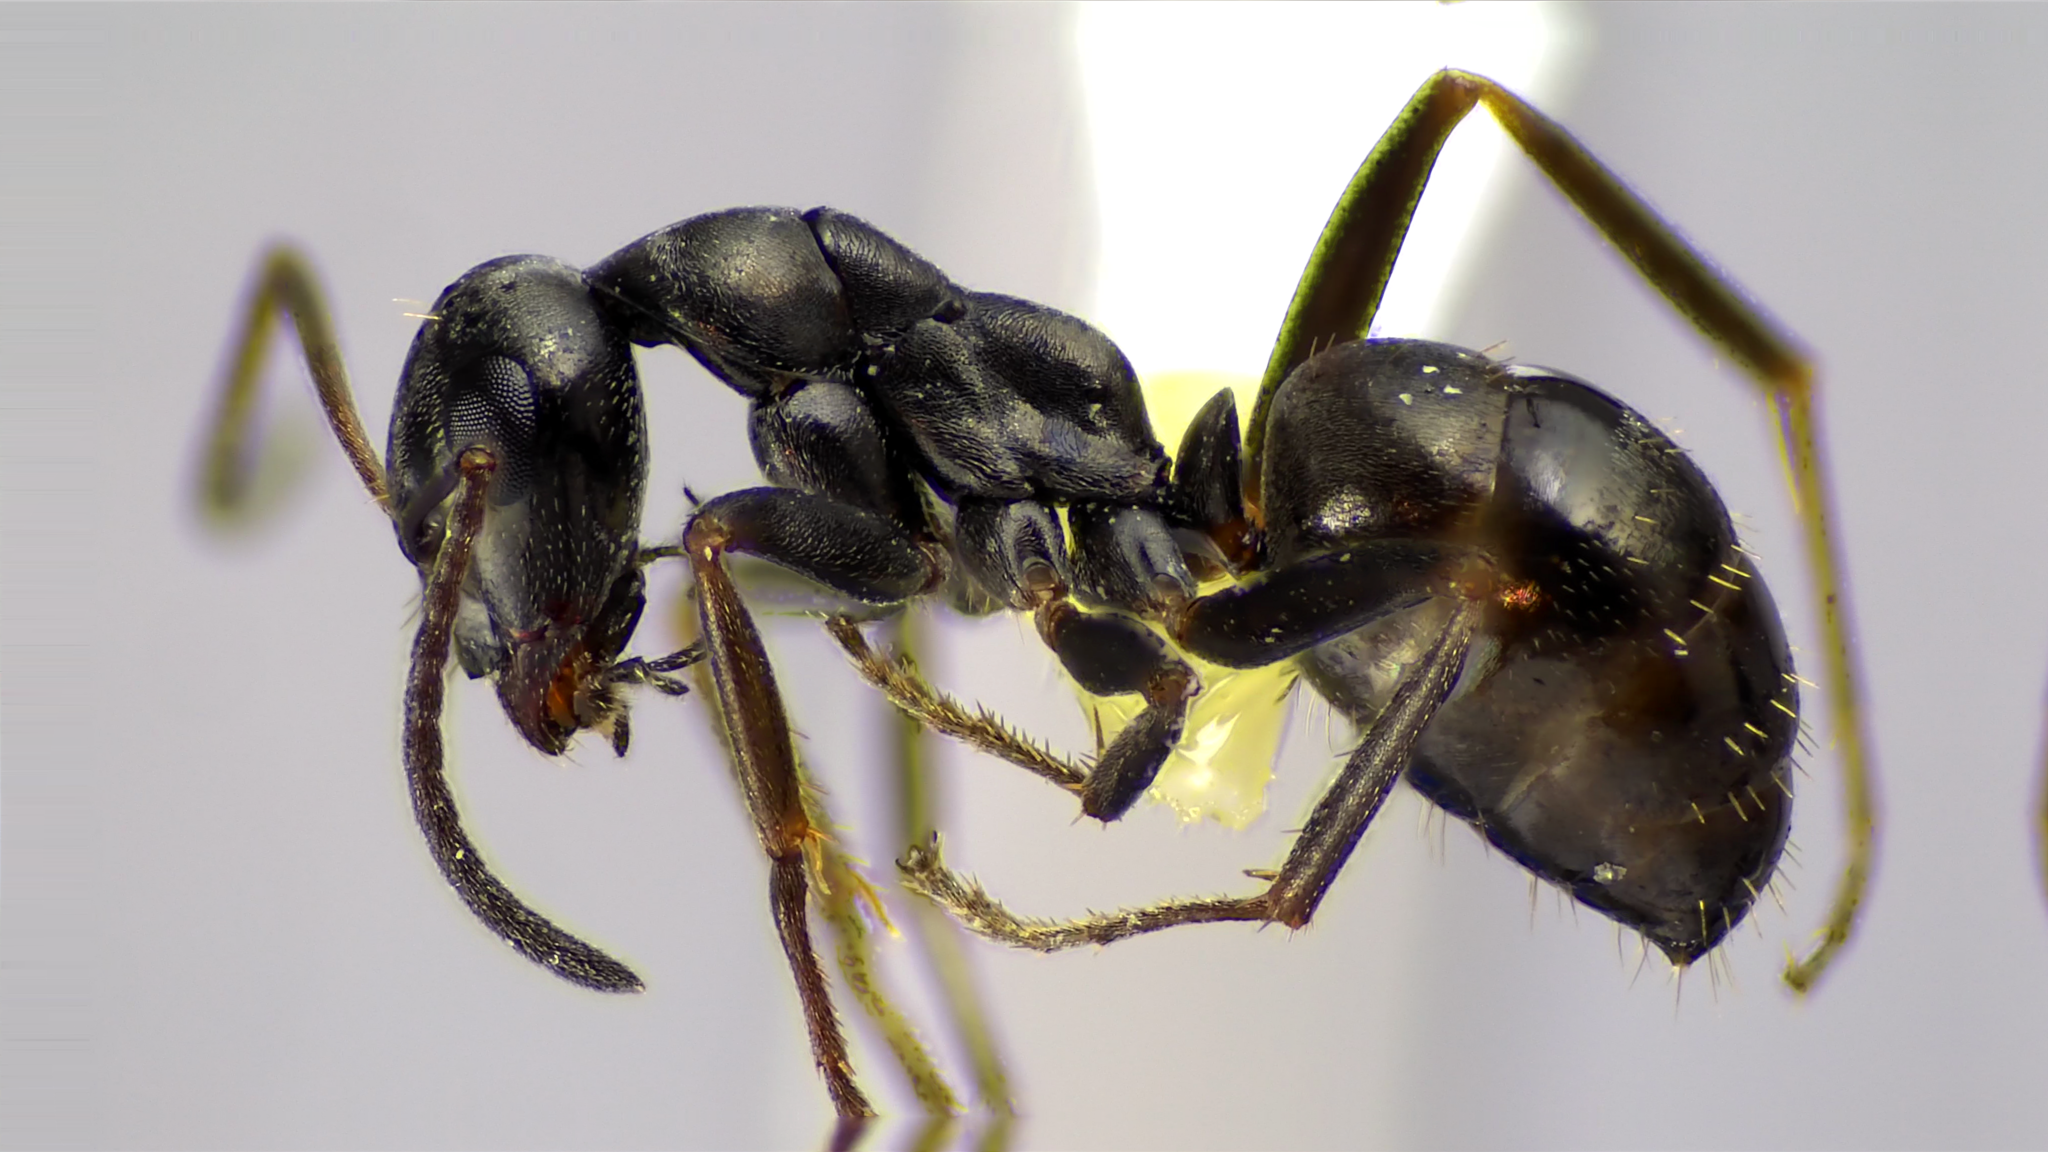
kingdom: Animalia
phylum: Arthropoda
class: Insecta
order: Hymenoptera
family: Formicidae
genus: Formica
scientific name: Formica subaenescens
